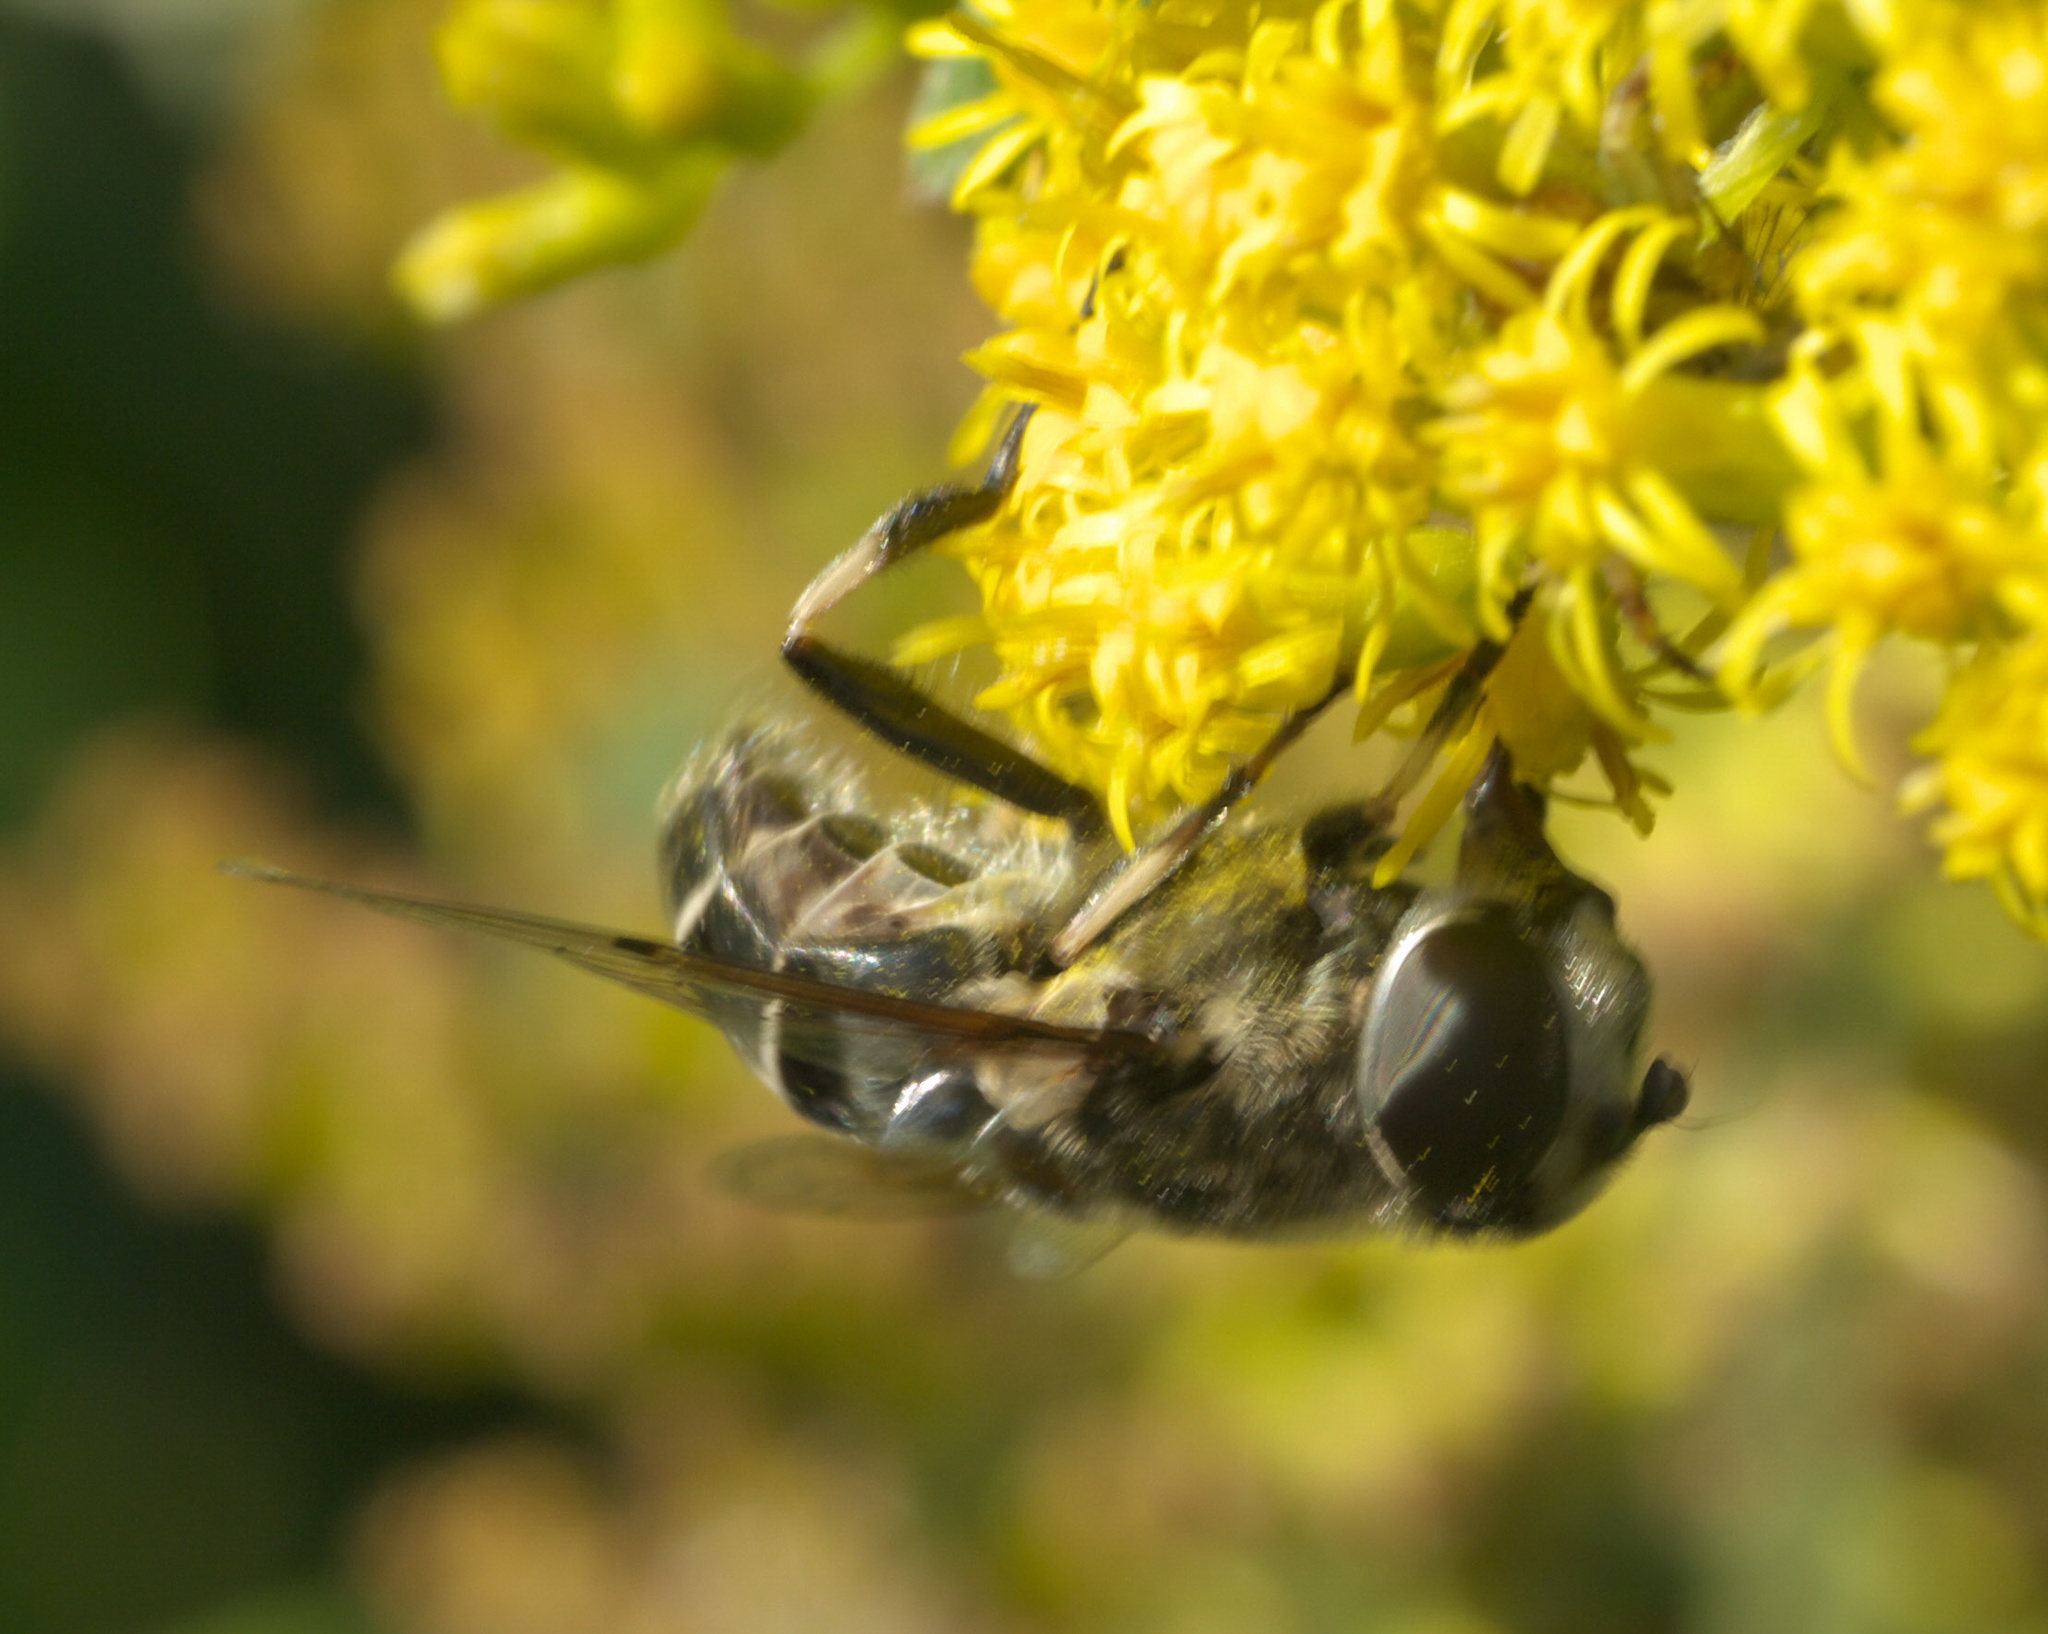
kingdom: Animalia
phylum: Arthropoda
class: Insecta
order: Diptera
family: Syrphidae
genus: Eristalis
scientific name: Eristalis dimidiata
